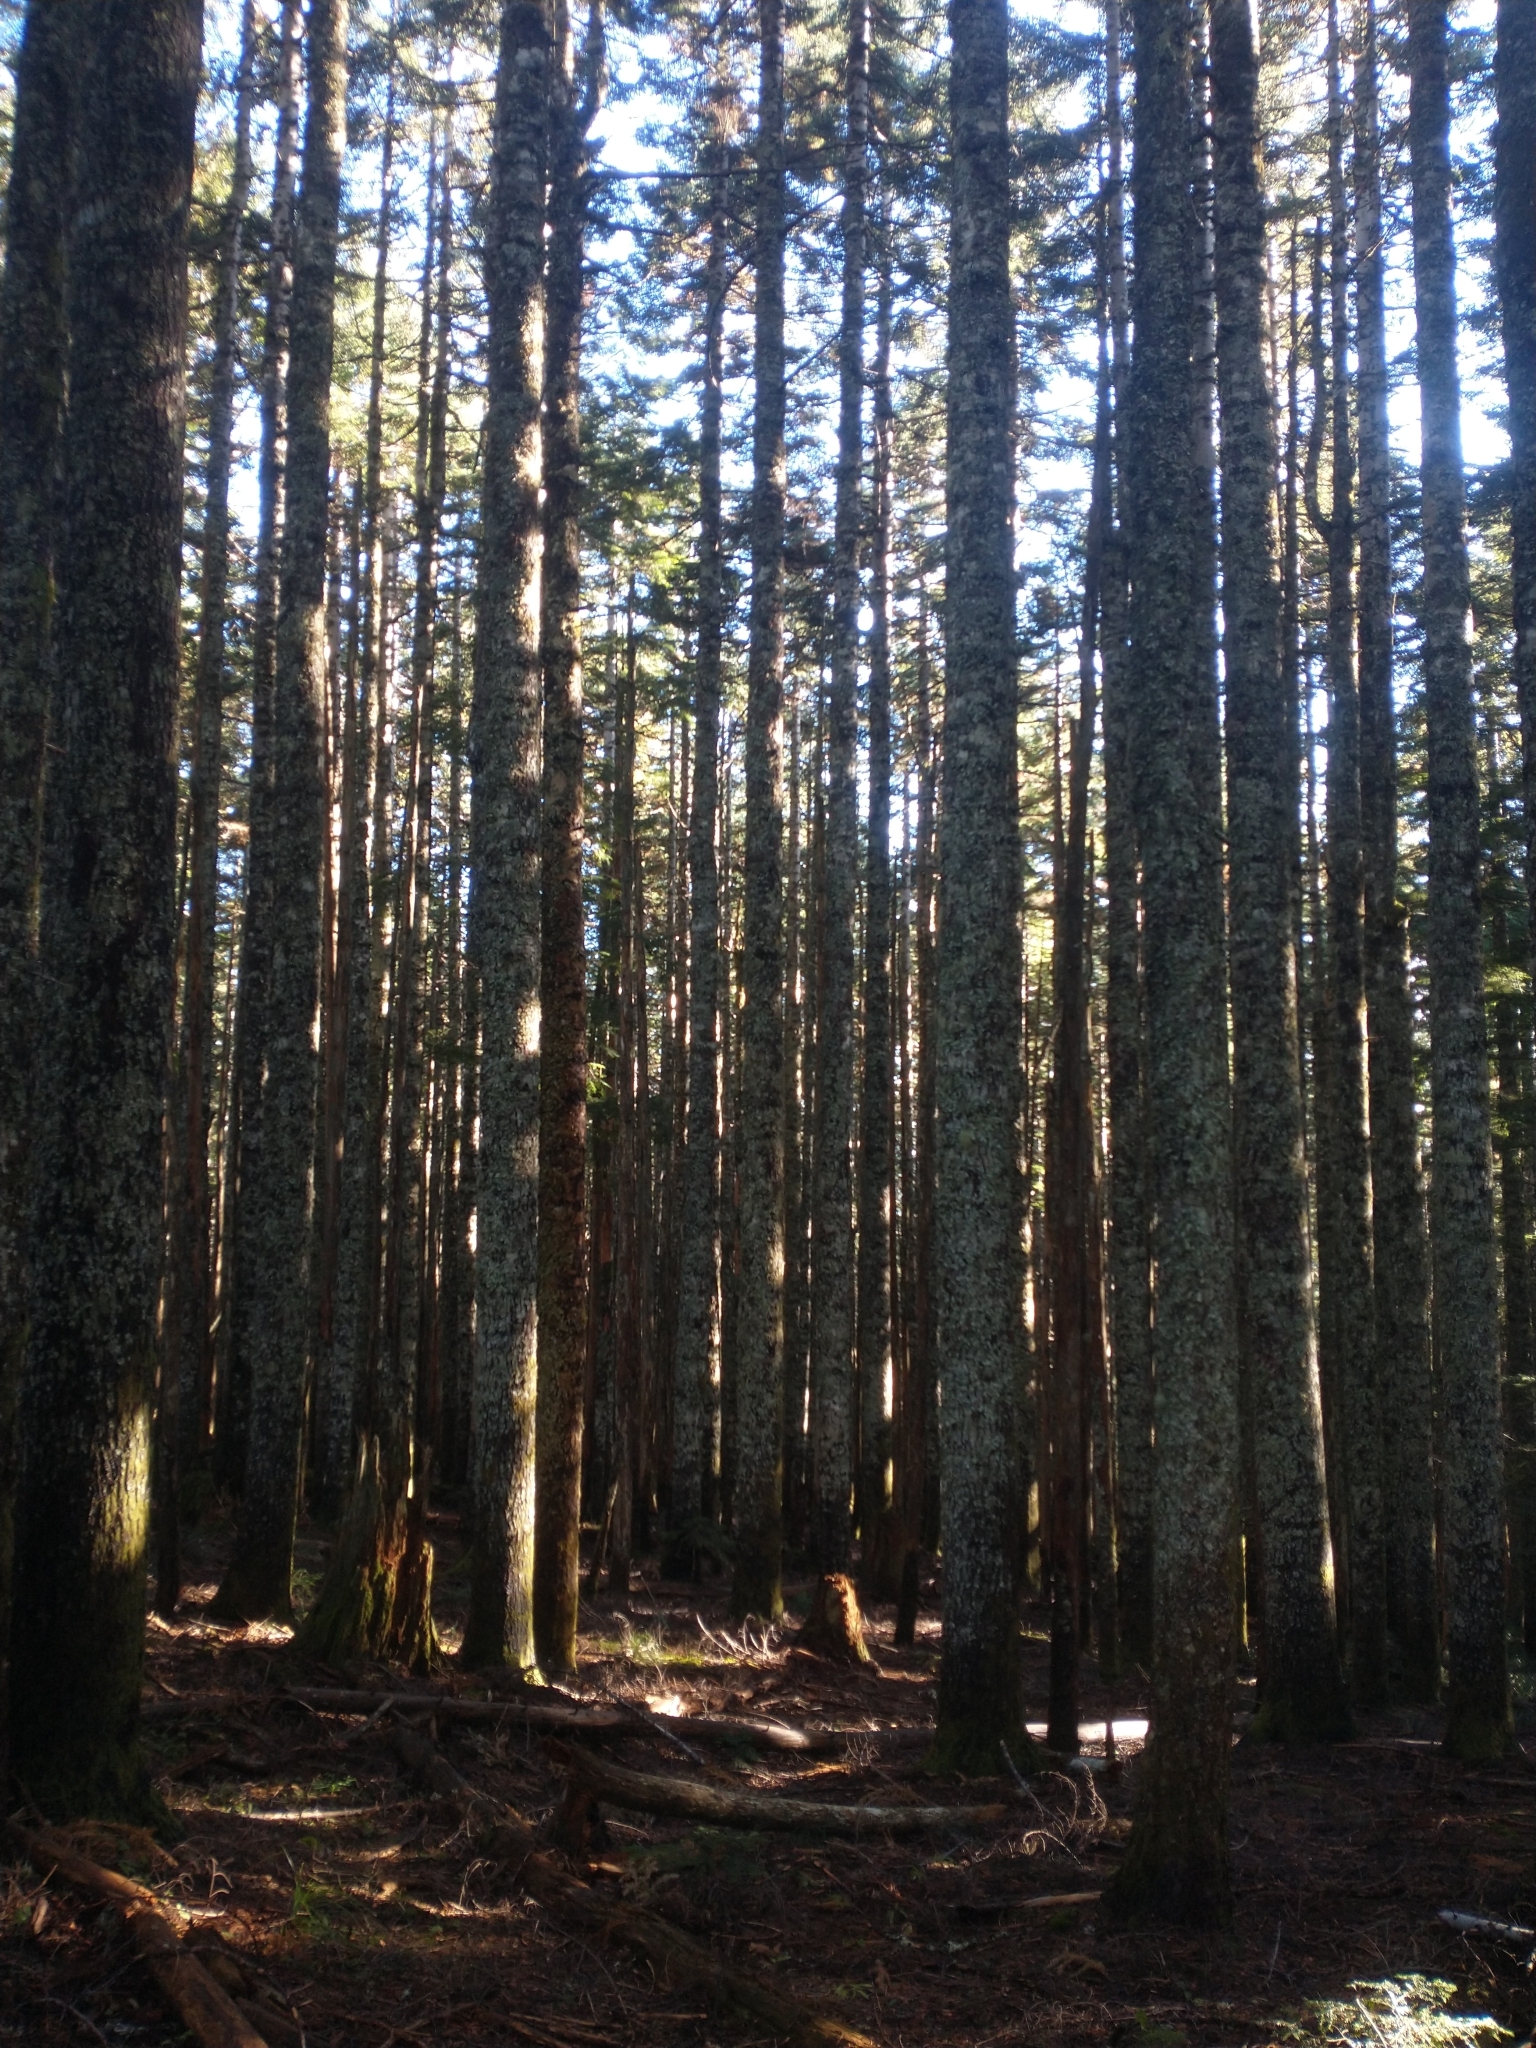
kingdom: Plantae
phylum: Tracheophyta
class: Pinopsida
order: Pinales
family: Pinaceae
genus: Abies
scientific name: Abies procera
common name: Noble fir
